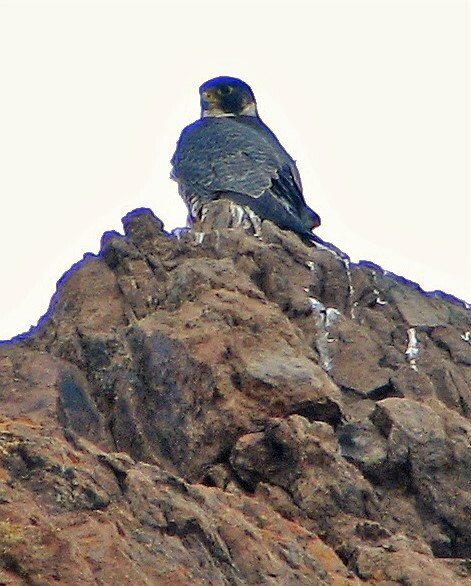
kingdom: Animalia
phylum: Chordata
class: Aves
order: Falconiformes
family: Falconidae
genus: Falco
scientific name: Falco peregrinus
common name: Peregrine falcon
